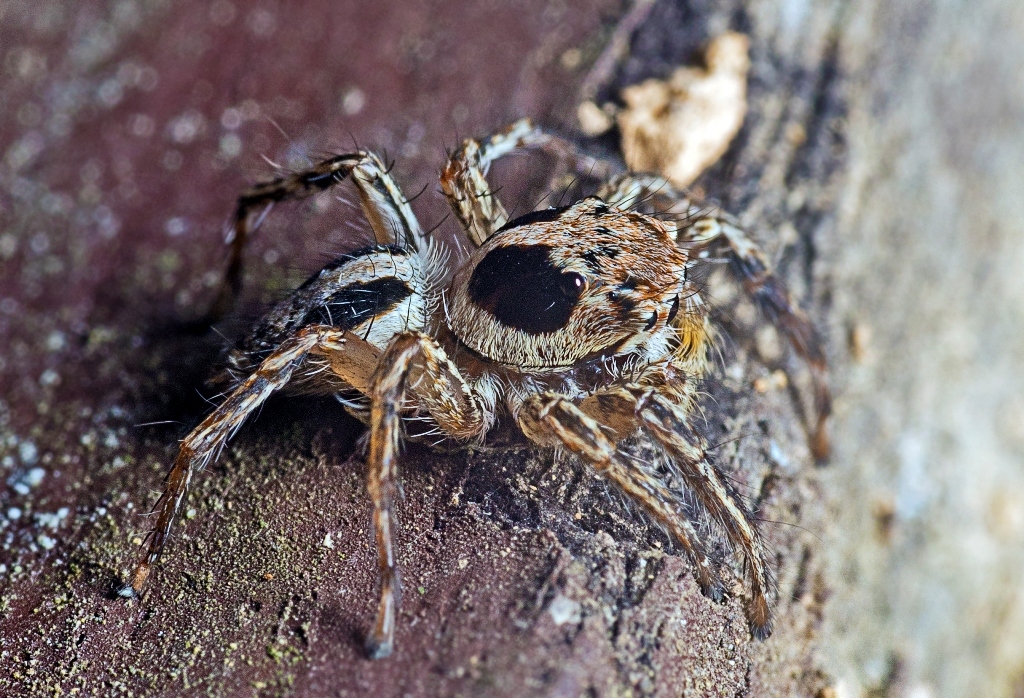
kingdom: Animalia
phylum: Arthropoda
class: Arachnida
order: Araneae
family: Salticidae
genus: Plexippus
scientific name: Plexippus petersi
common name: Jumping spider
